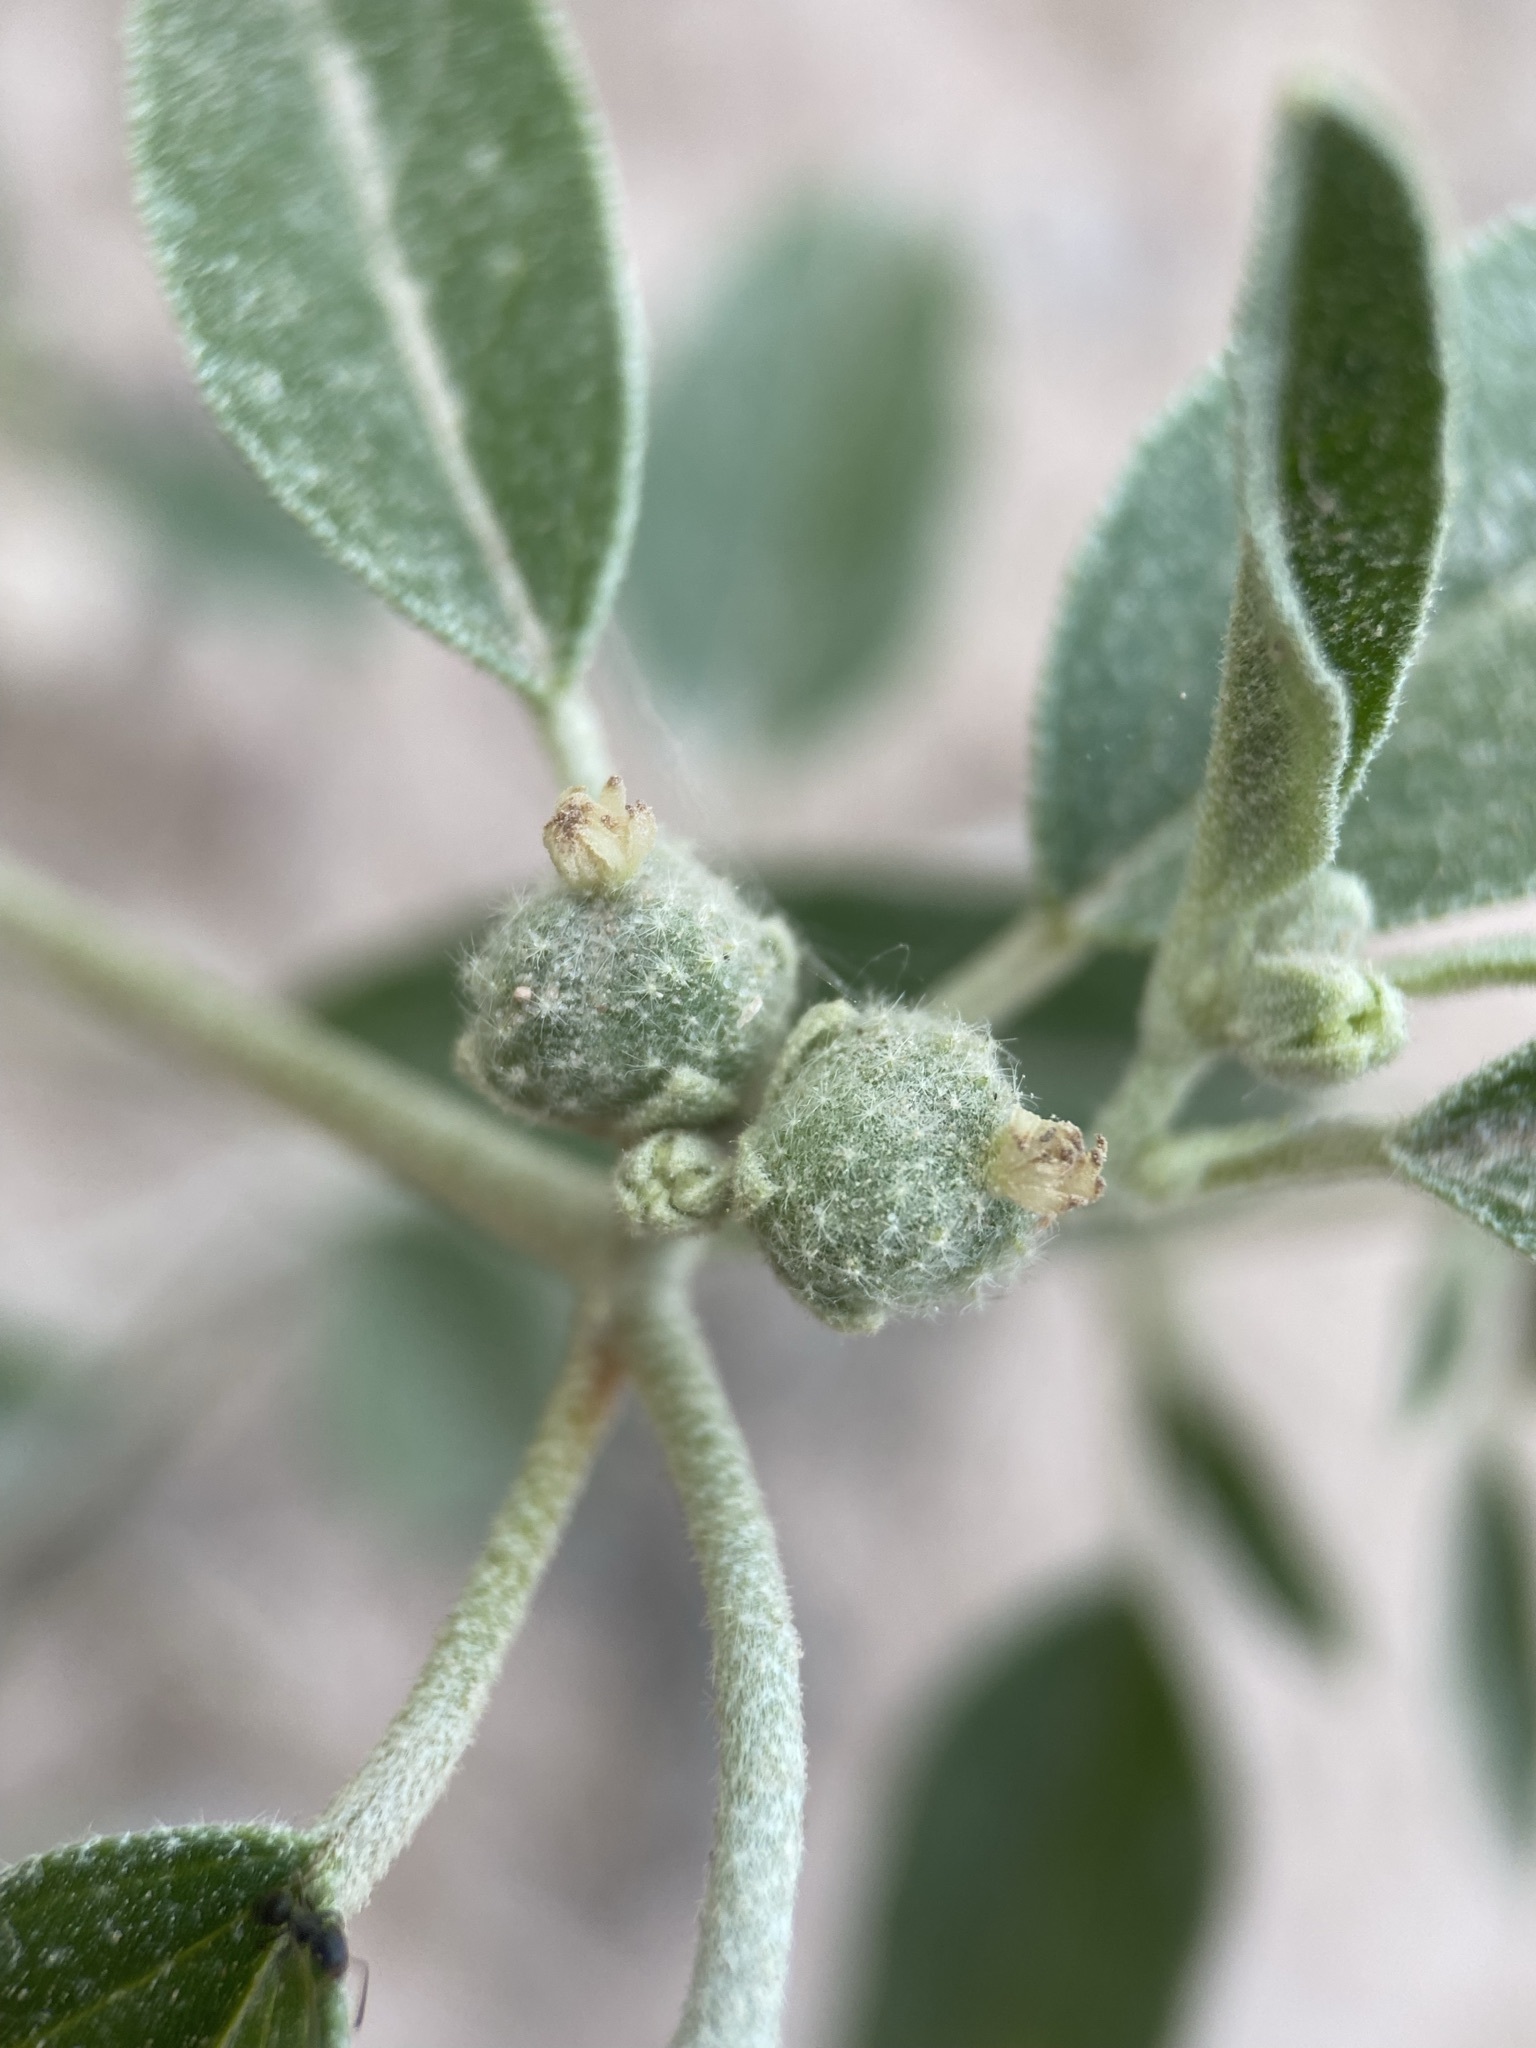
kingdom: Plantae
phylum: Tracheophyta
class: Magnoliopsida
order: Malpighiales
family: Euphorbiaceae
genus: Croton
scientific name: Croton texensis
